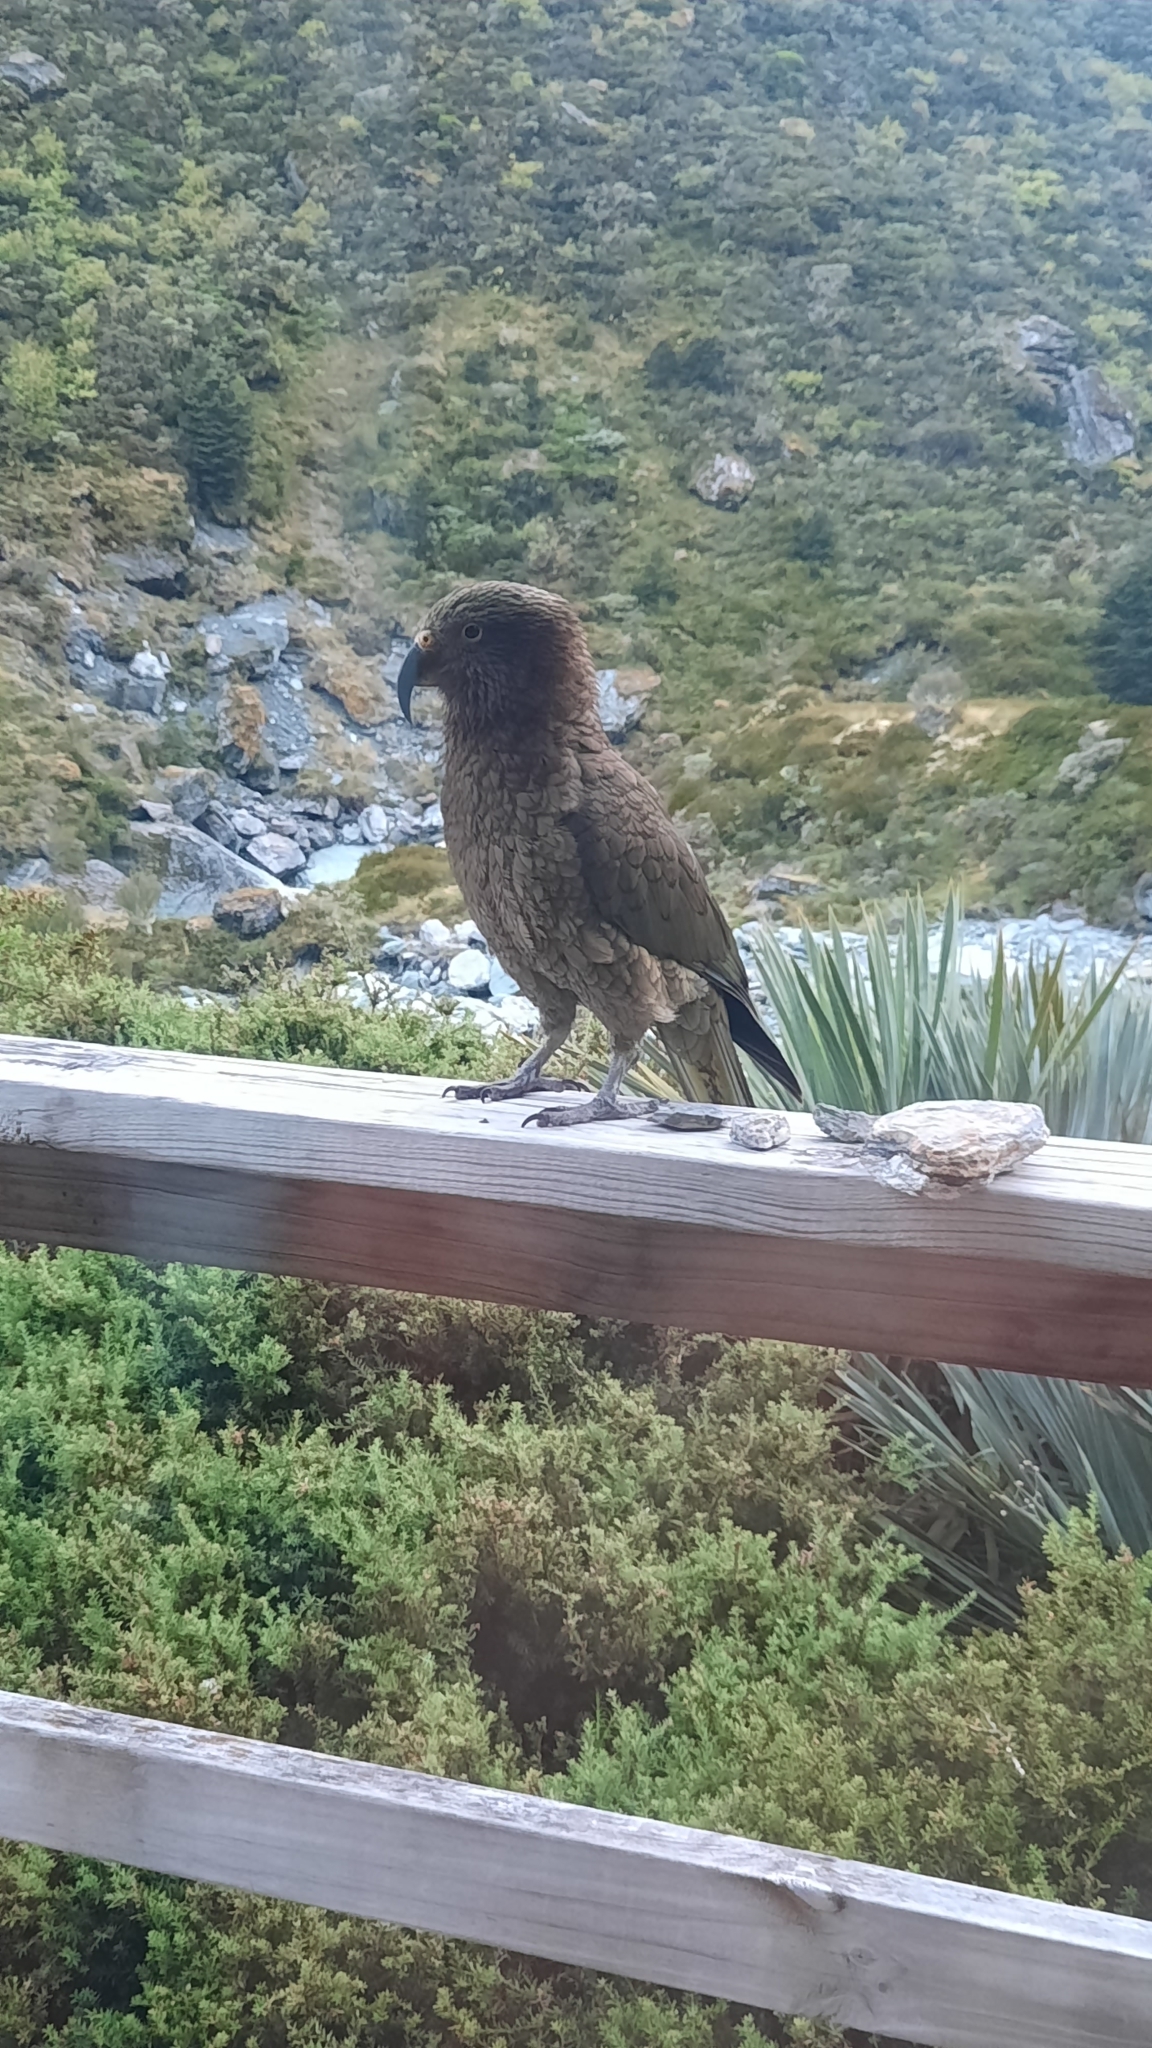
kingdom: Animalia
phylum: Chordata
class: Aves
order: Psittaciformes
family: Psittacidae
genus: Nestor
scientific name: Nestor notabilis
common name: Kea
